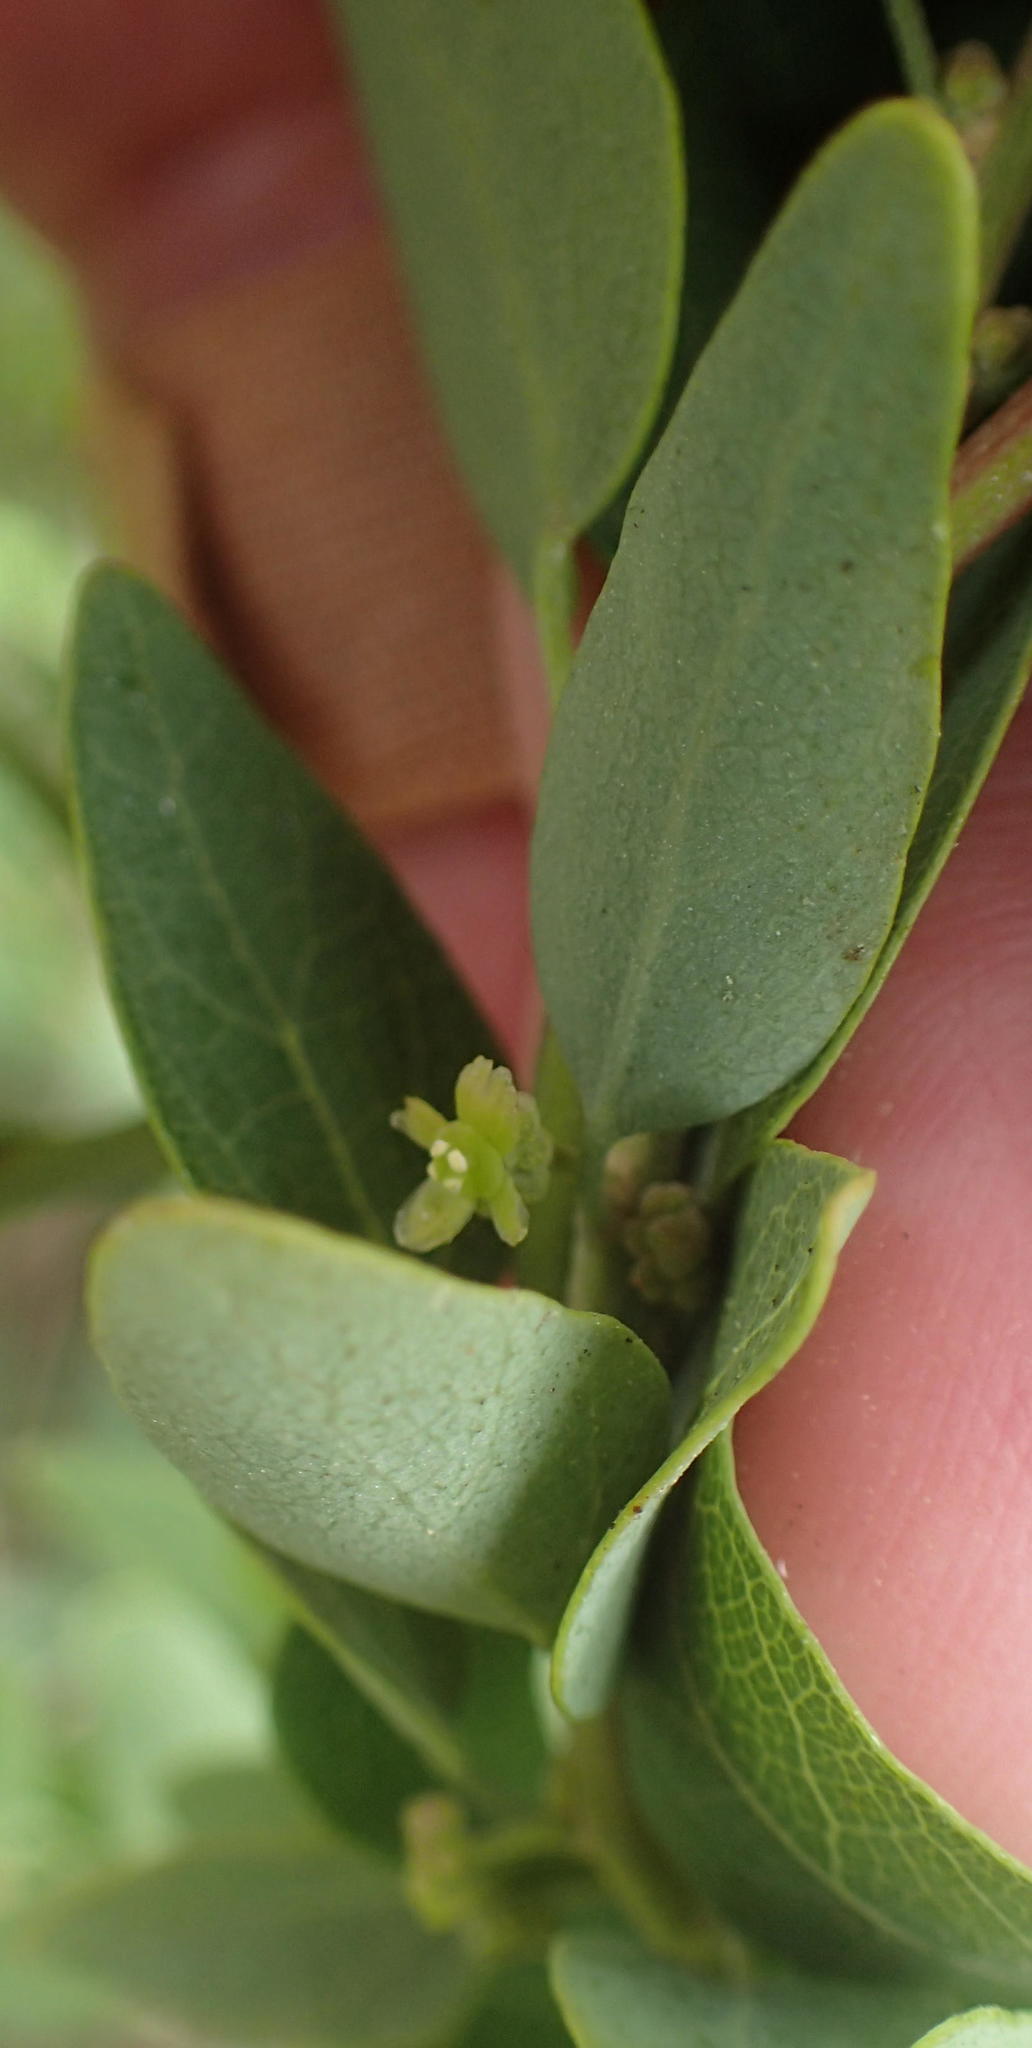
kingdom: Plantae
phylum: Tracheophyta
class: Magnoliopsida
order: Ranunculales
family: Menispermaceae
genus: Cissampelos
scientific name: Cissampelos capensis
